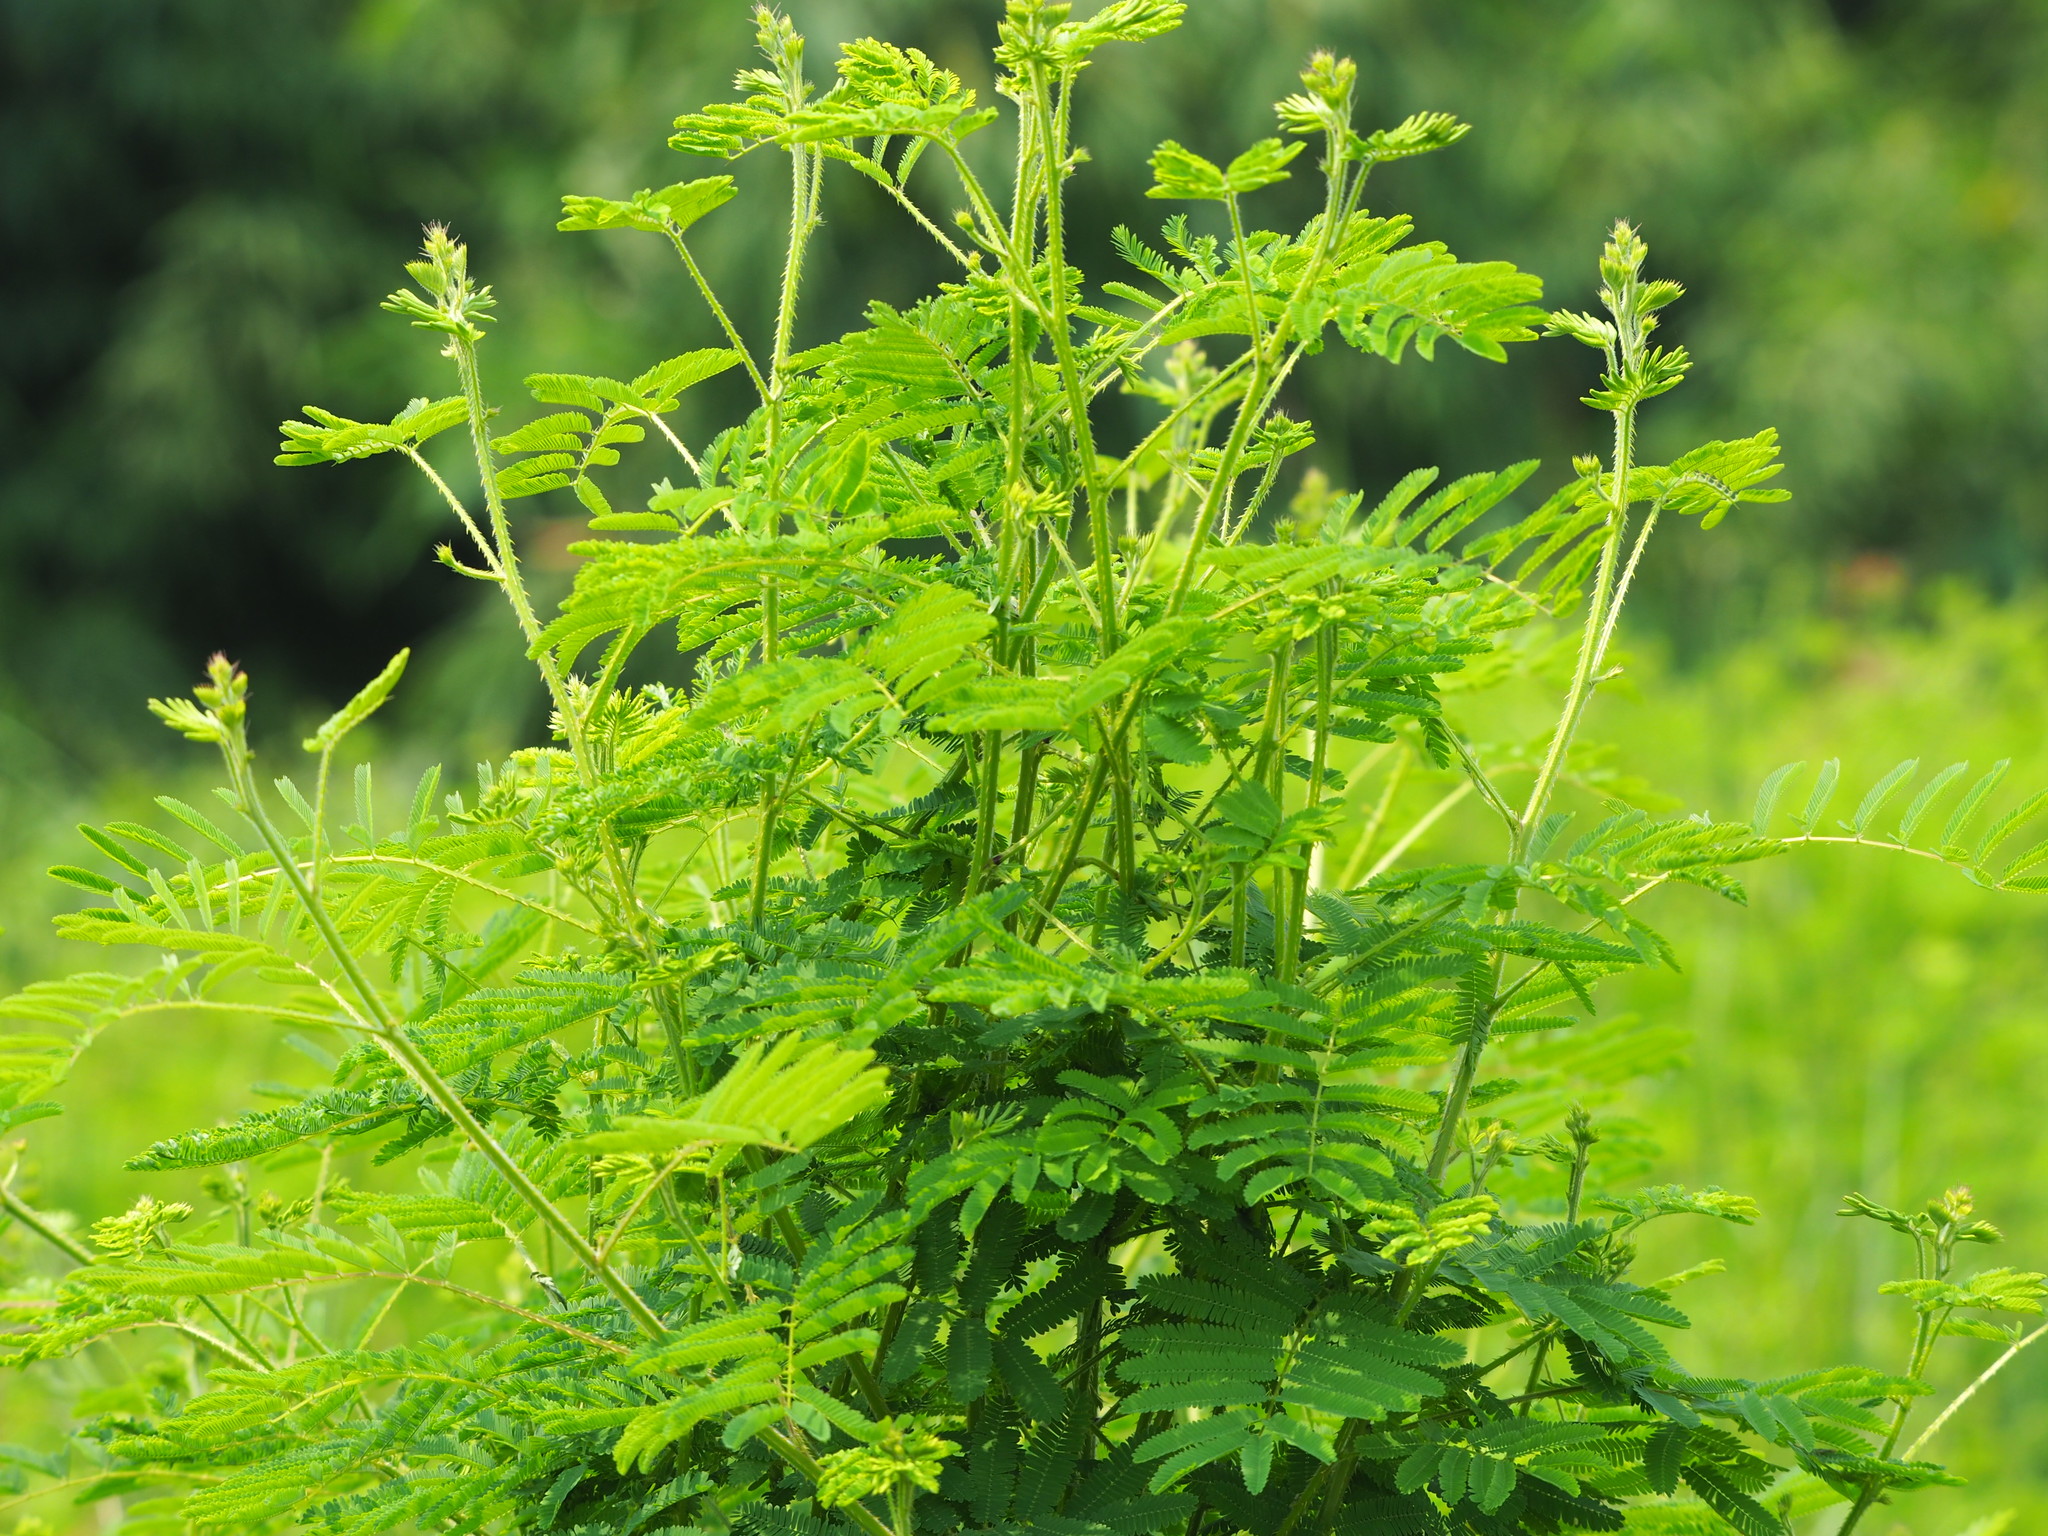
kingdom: Plantae
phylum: Tracheophyta
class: Magnoliopsida
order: Fabales
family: Fabaceae
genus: Mimosa
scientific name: Mimosa diplotricha
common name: Giant sensitive-plant
